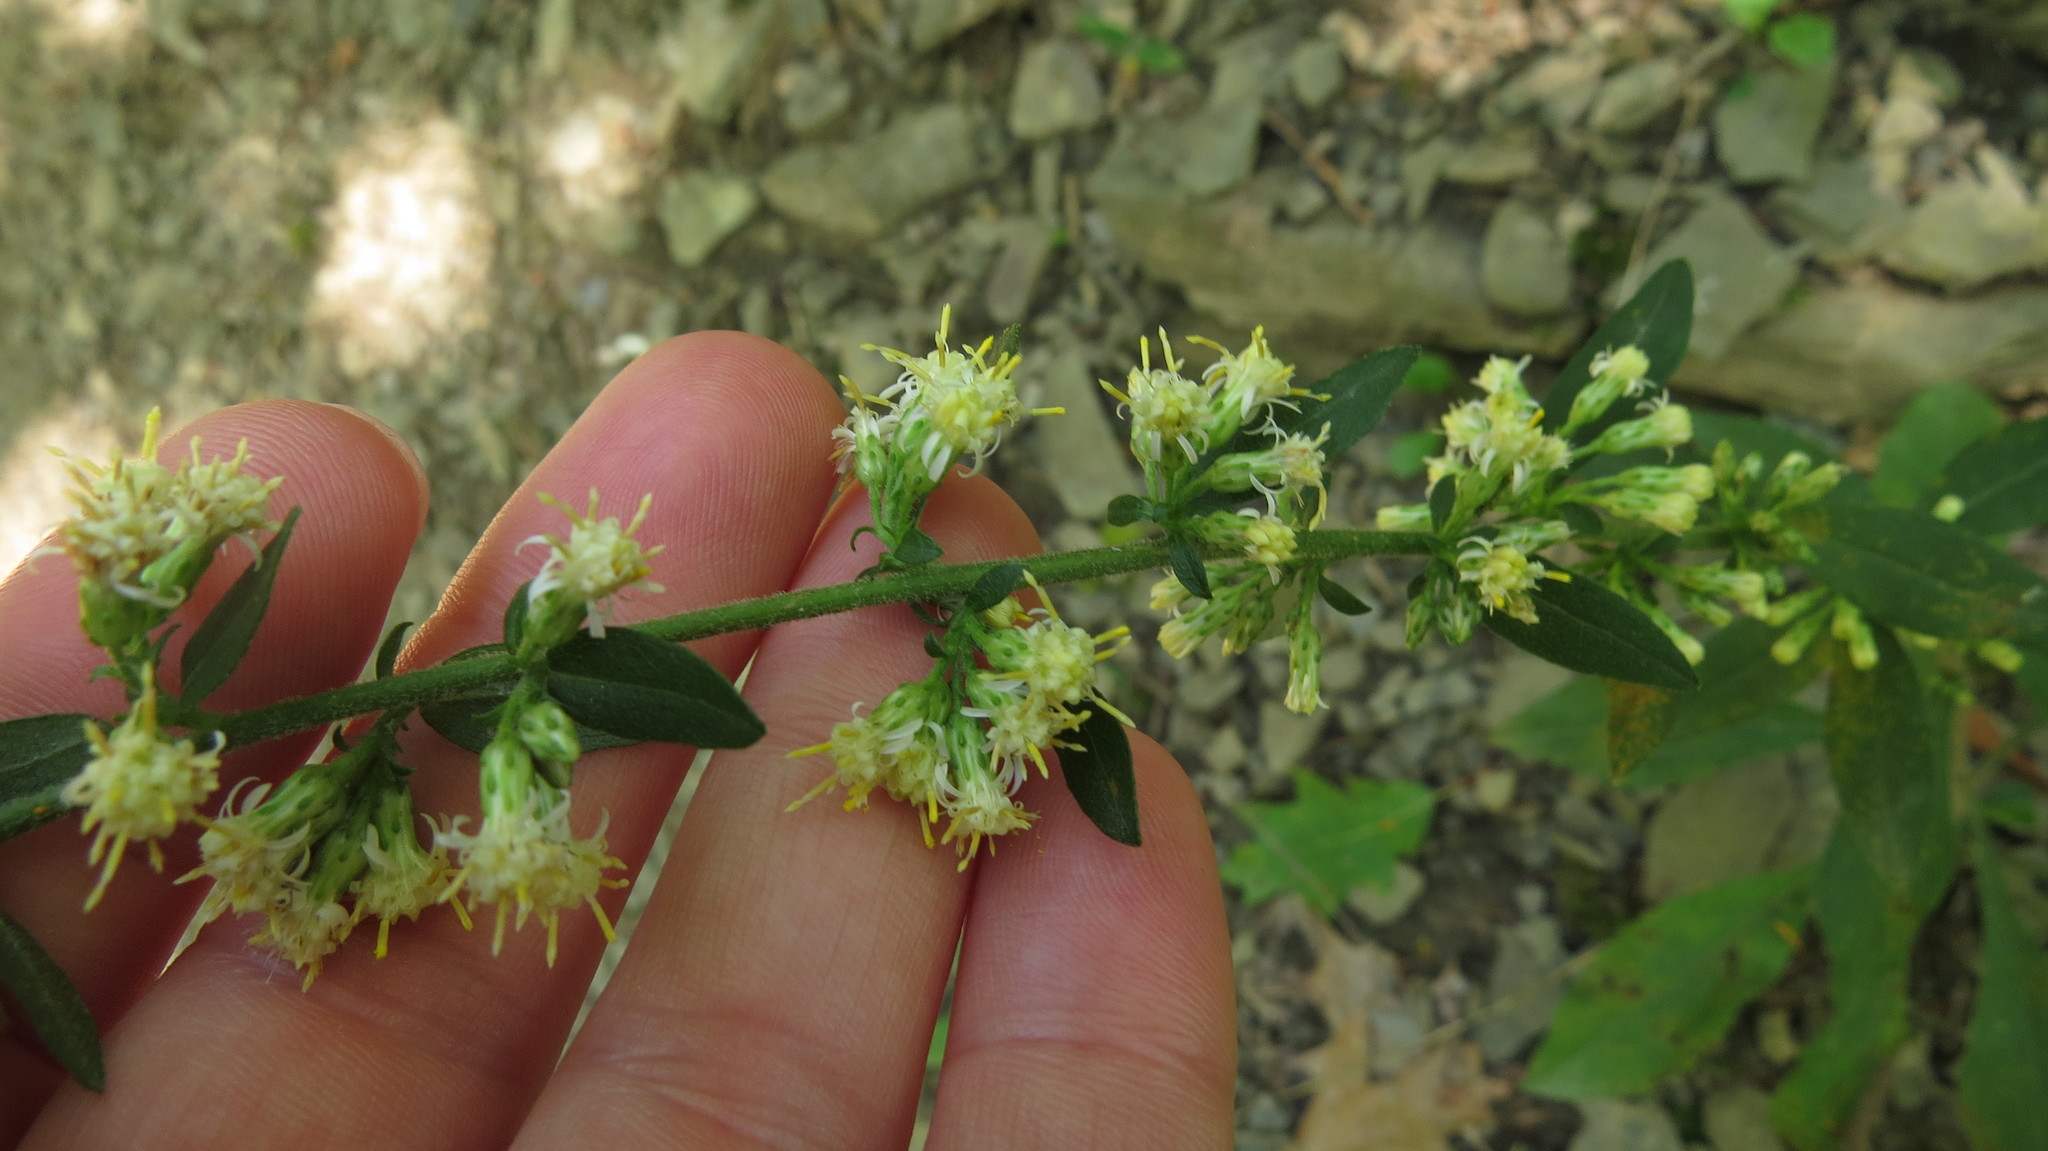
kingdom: Plantae
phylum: Tracheophyta
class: Magnoliopsida
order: Asterales
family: Asteraceae
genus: Solidago
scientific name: Solidago bicolor
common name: Silverrod
